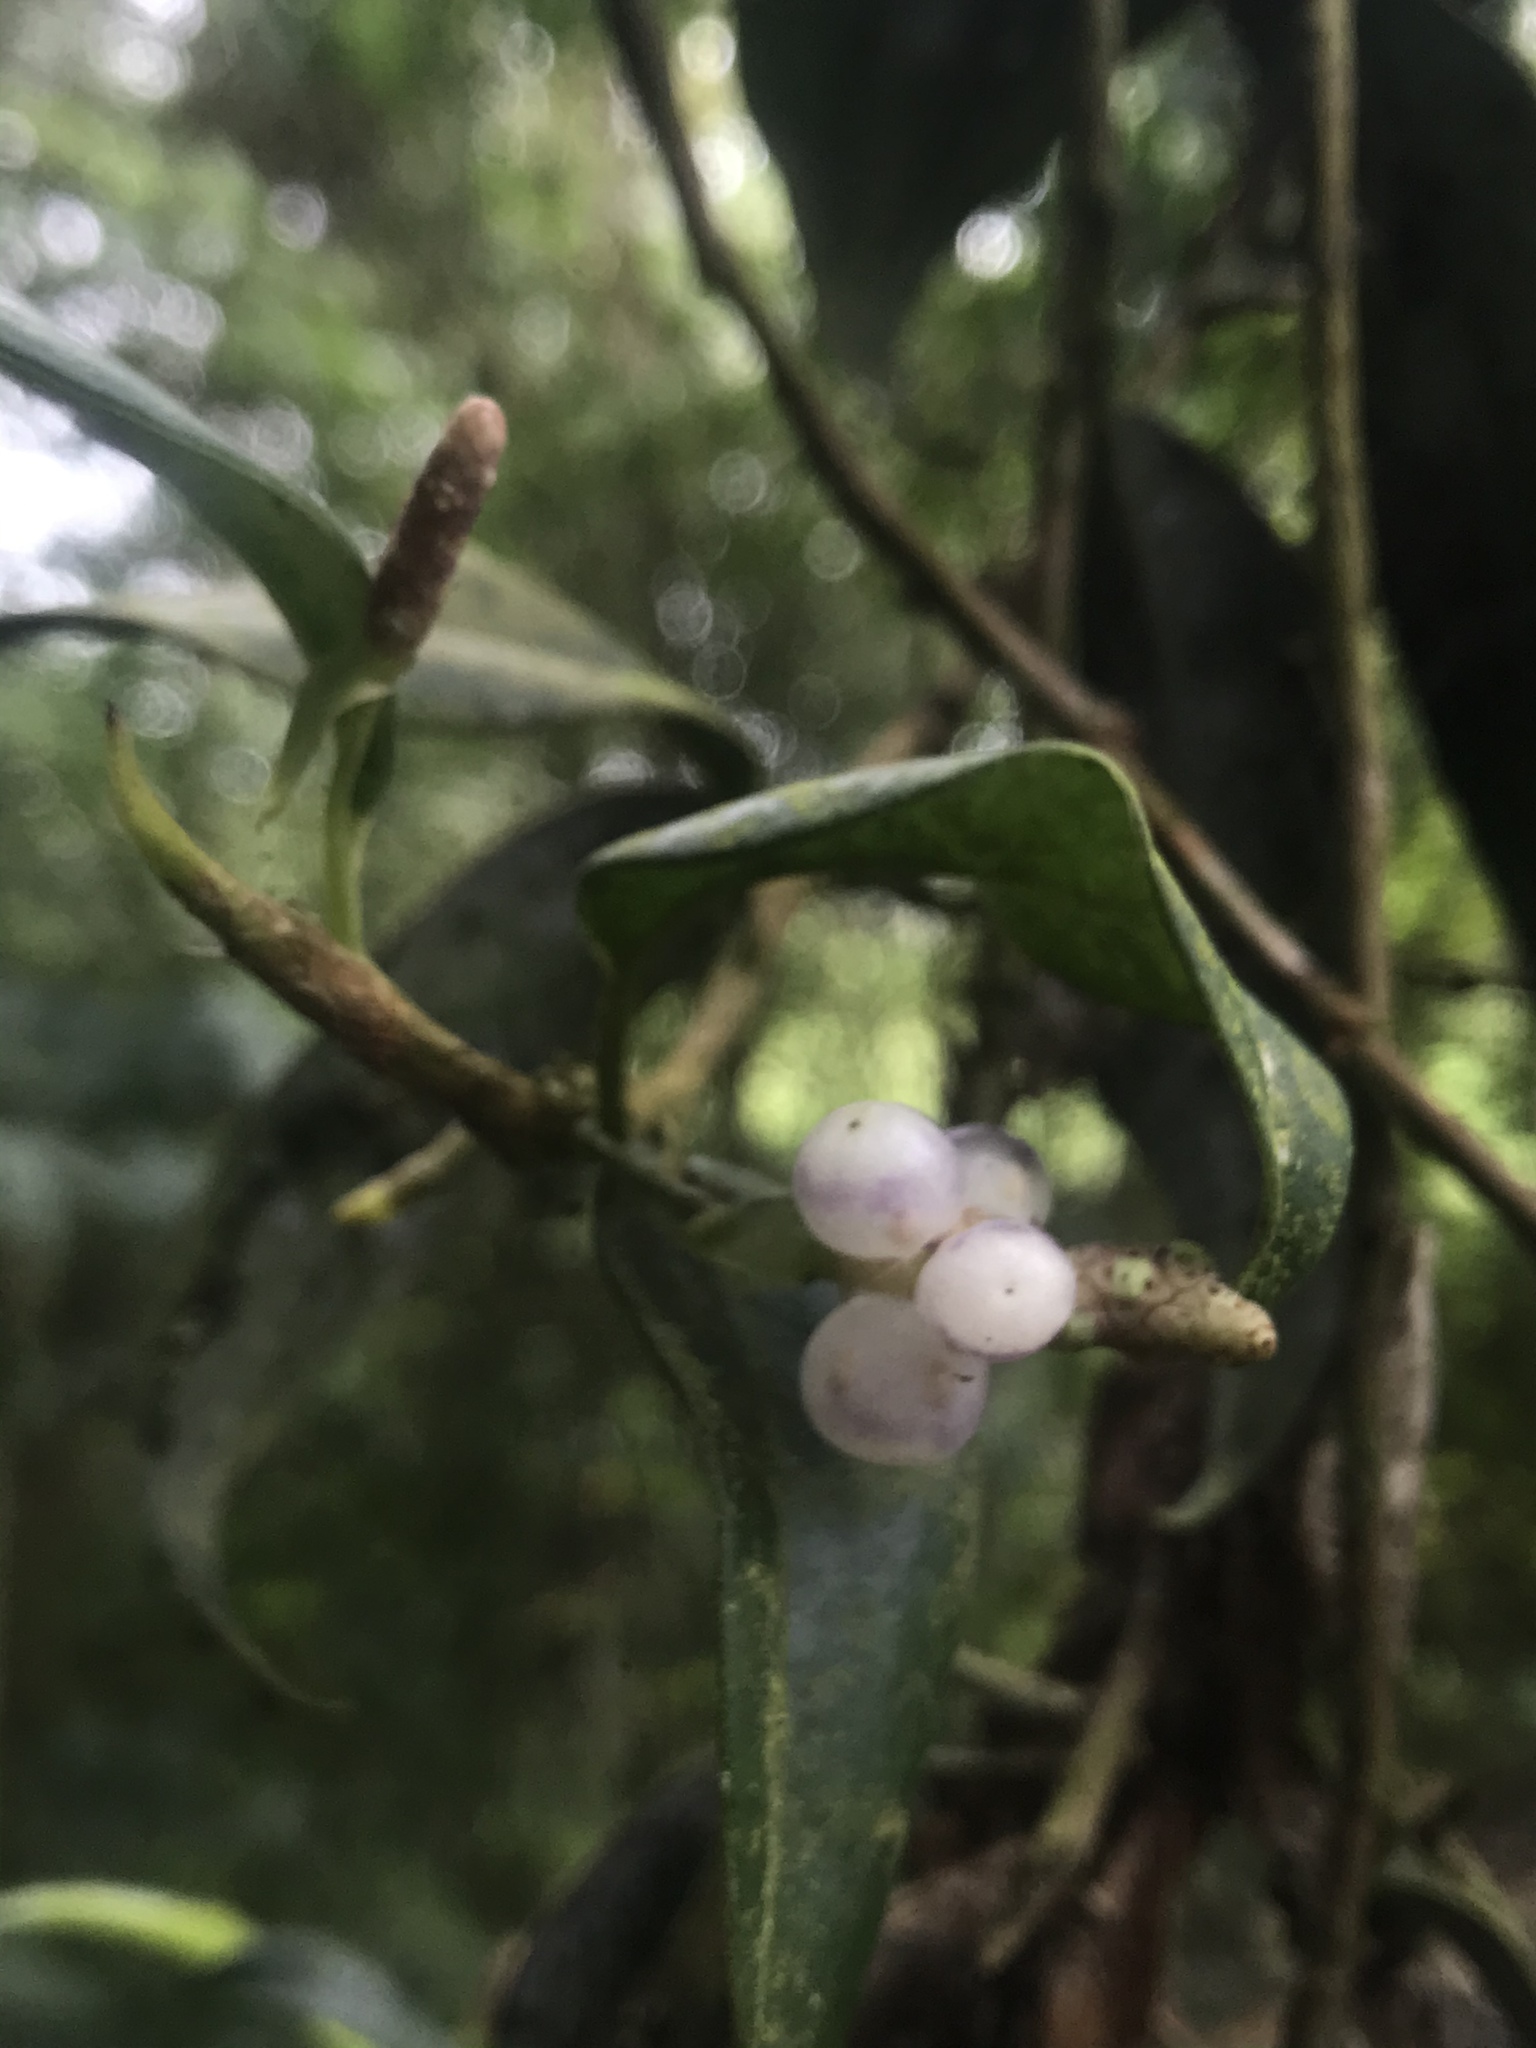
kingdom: Plantae
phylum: Tracheophyta
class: Liliopsida
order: Alismatales
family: Araceae
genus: Anthurium
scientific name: Anthurium scandens
